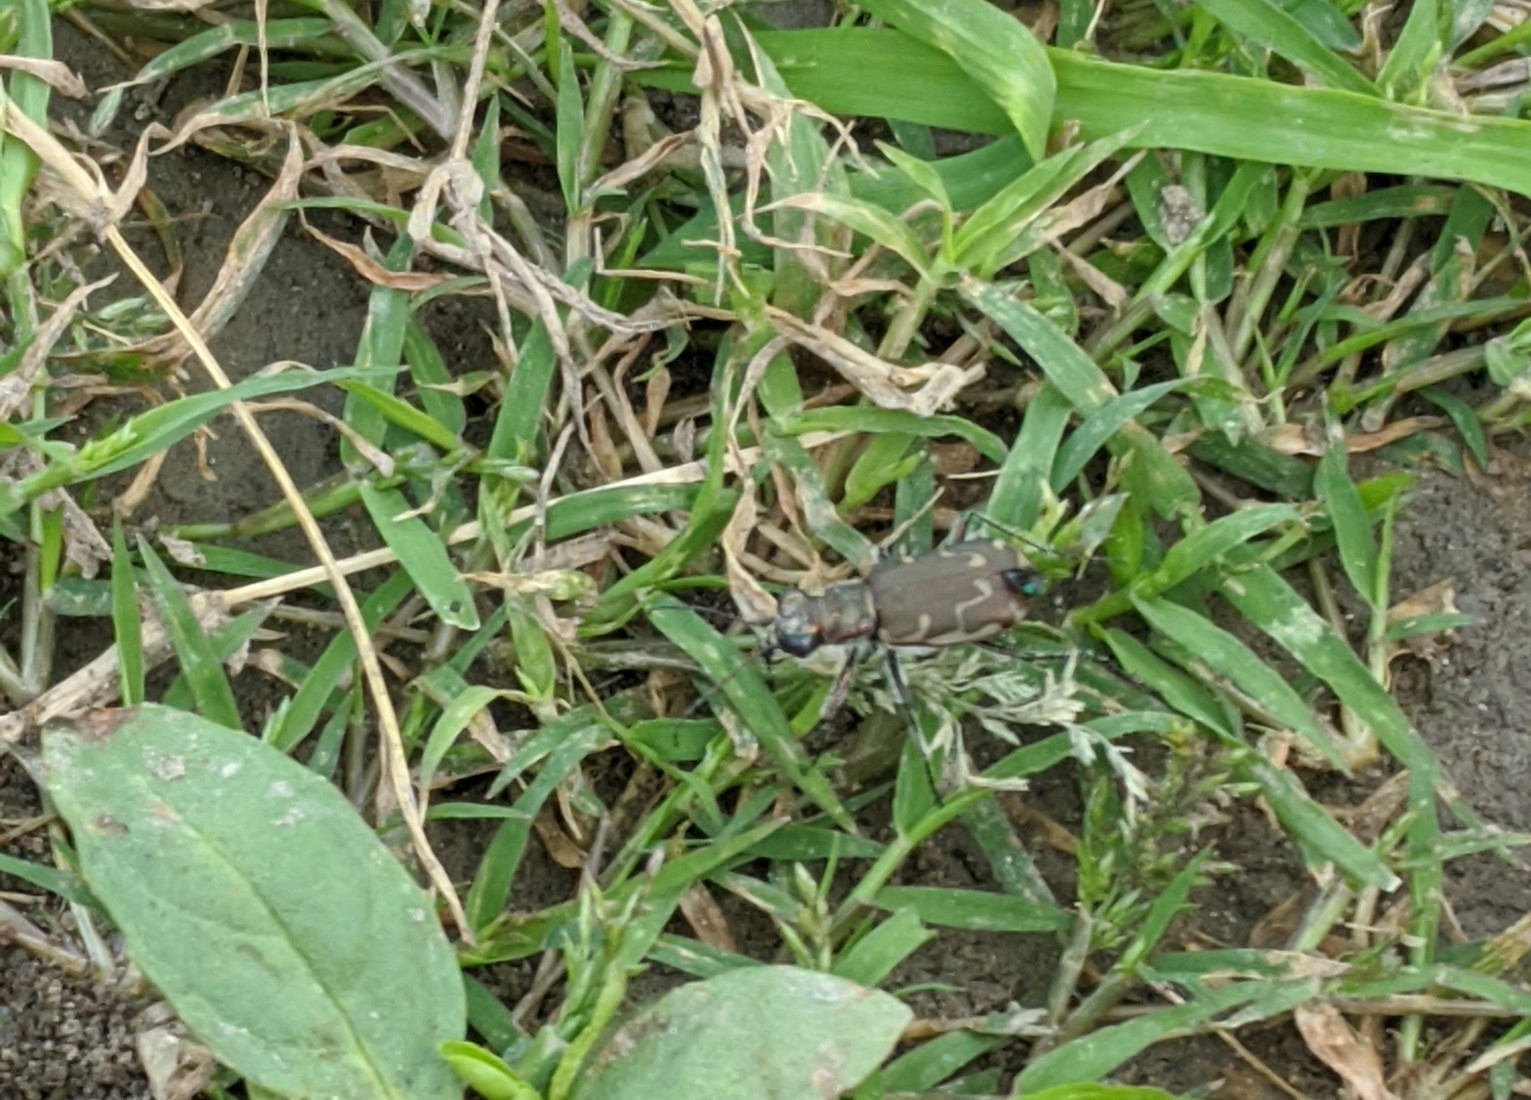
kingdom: Animalia
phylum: Arthropoda
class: Insecta
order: Coleoptera
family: Carabidae
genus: Cicindela
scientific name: Cicindela repanda
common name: Bronzed tiger beetle
